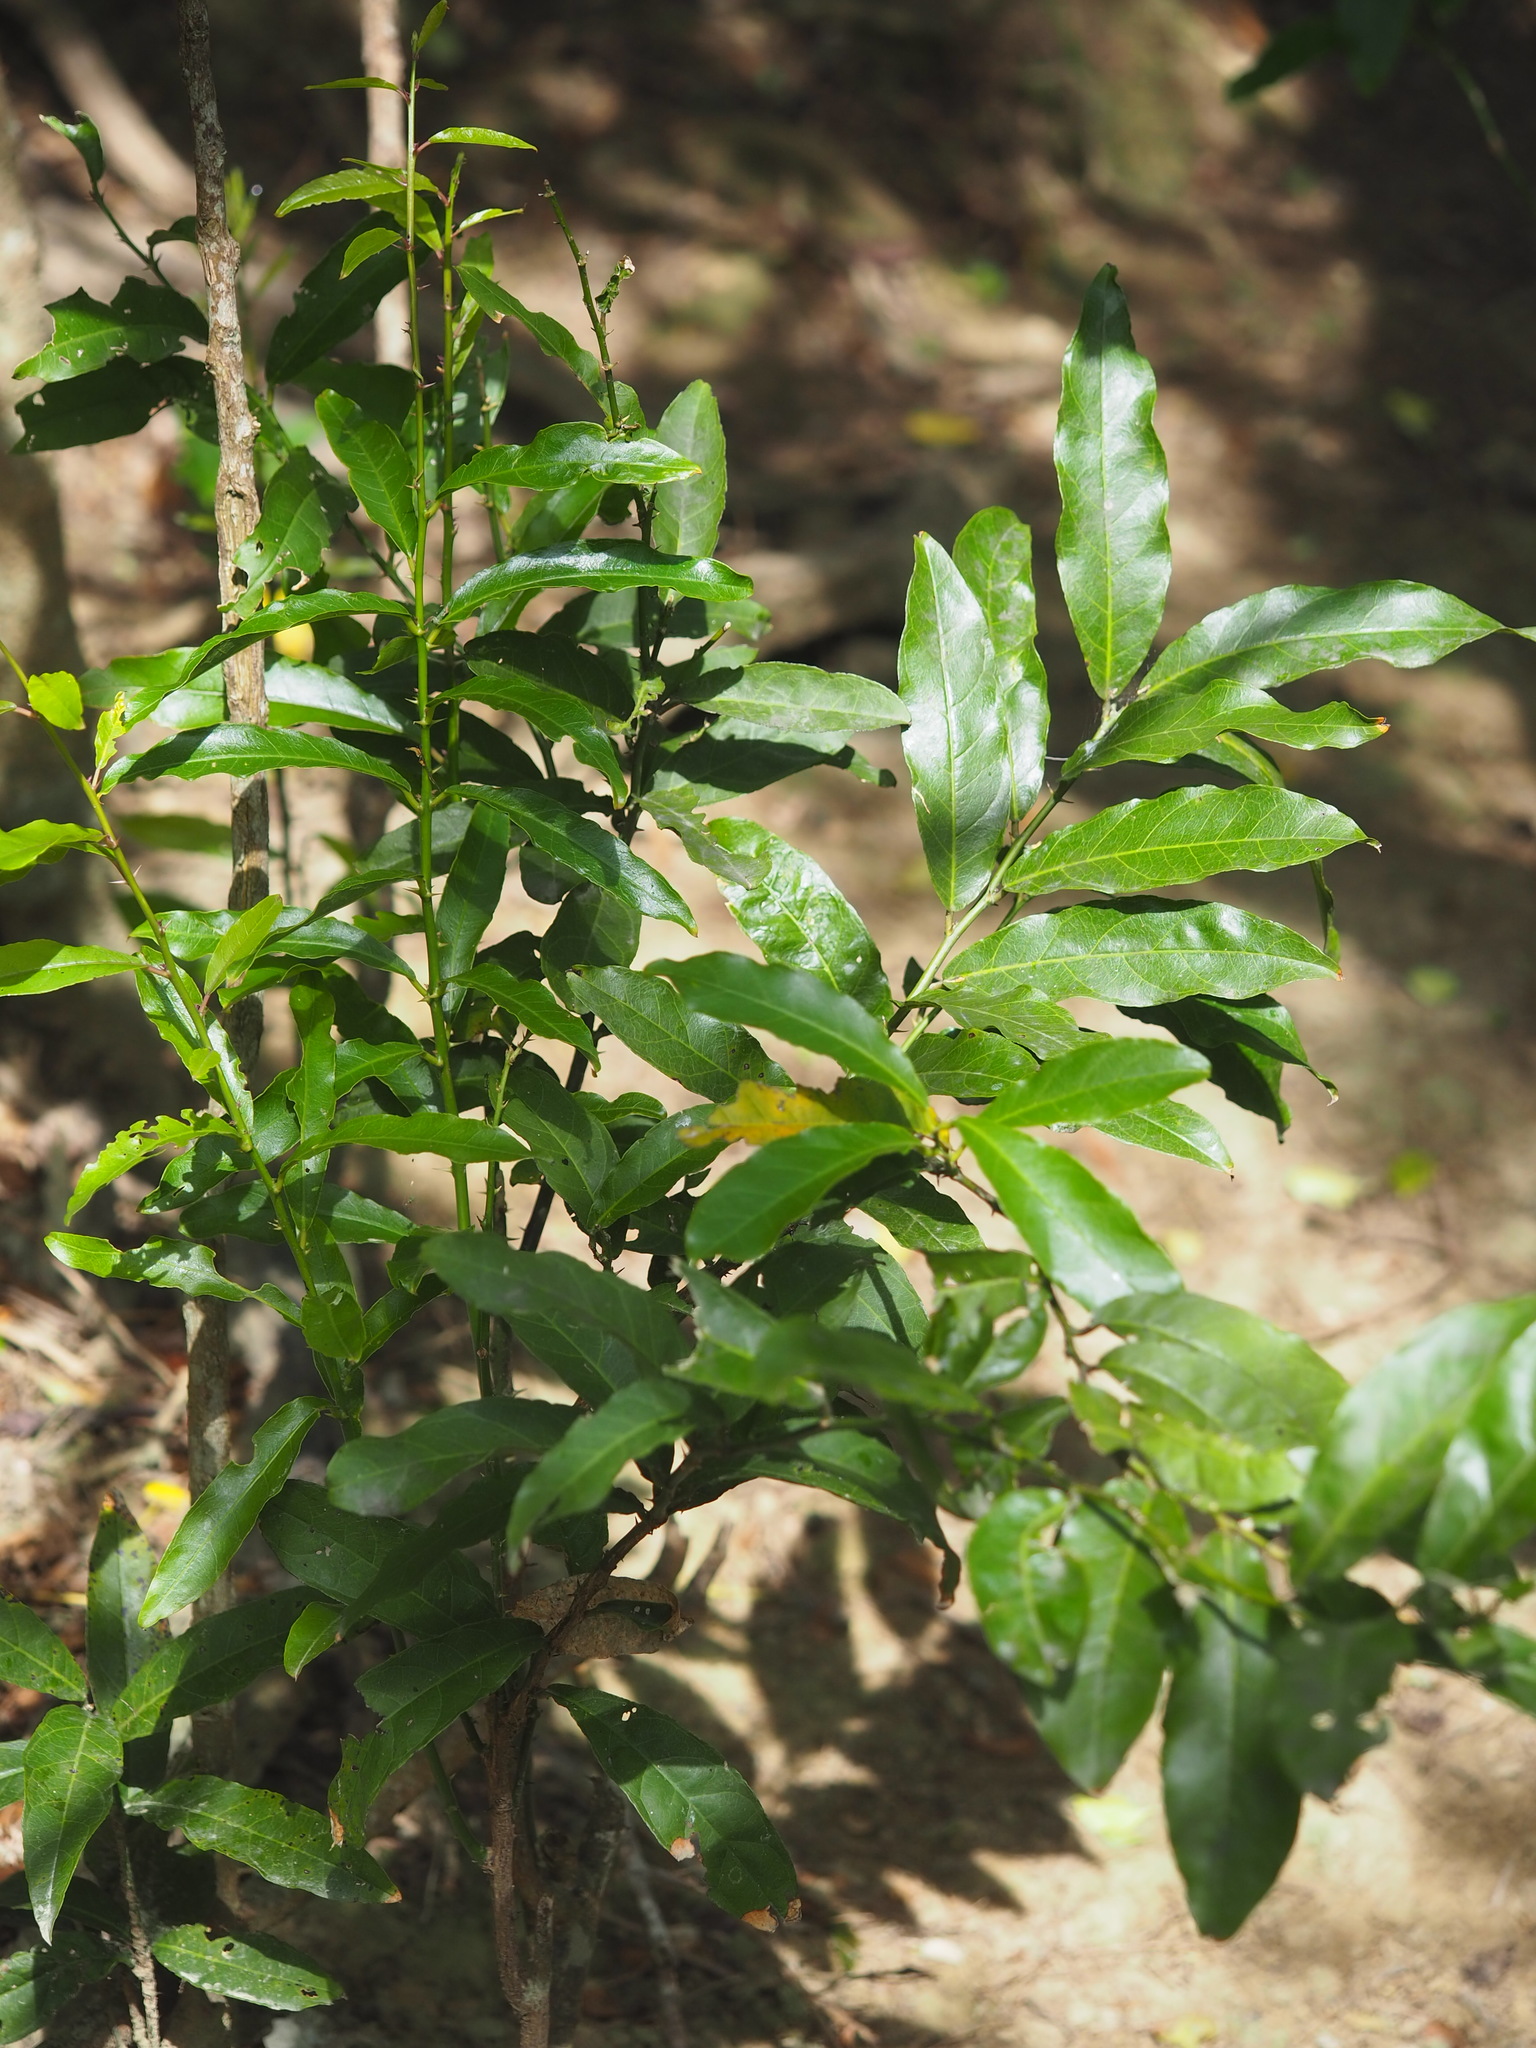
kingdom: Plantae
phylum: Tracheophyta
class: Magnoliopsida
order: Brassicales
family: Capparaceae
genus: Capparis
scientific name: Capparis henryi
